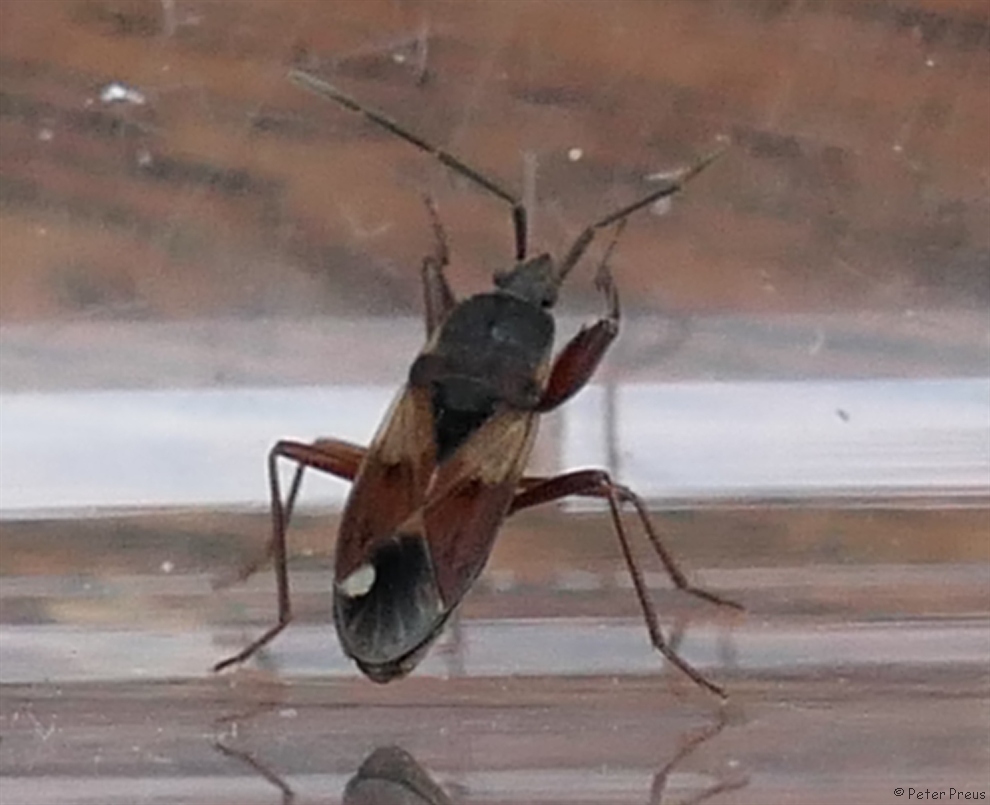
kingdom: Animalia
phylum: Arthropoda
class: Insecta
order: Hemiptera
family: Rhyparochromidae
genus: Eremocoris
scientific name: Eremocoris abietis
